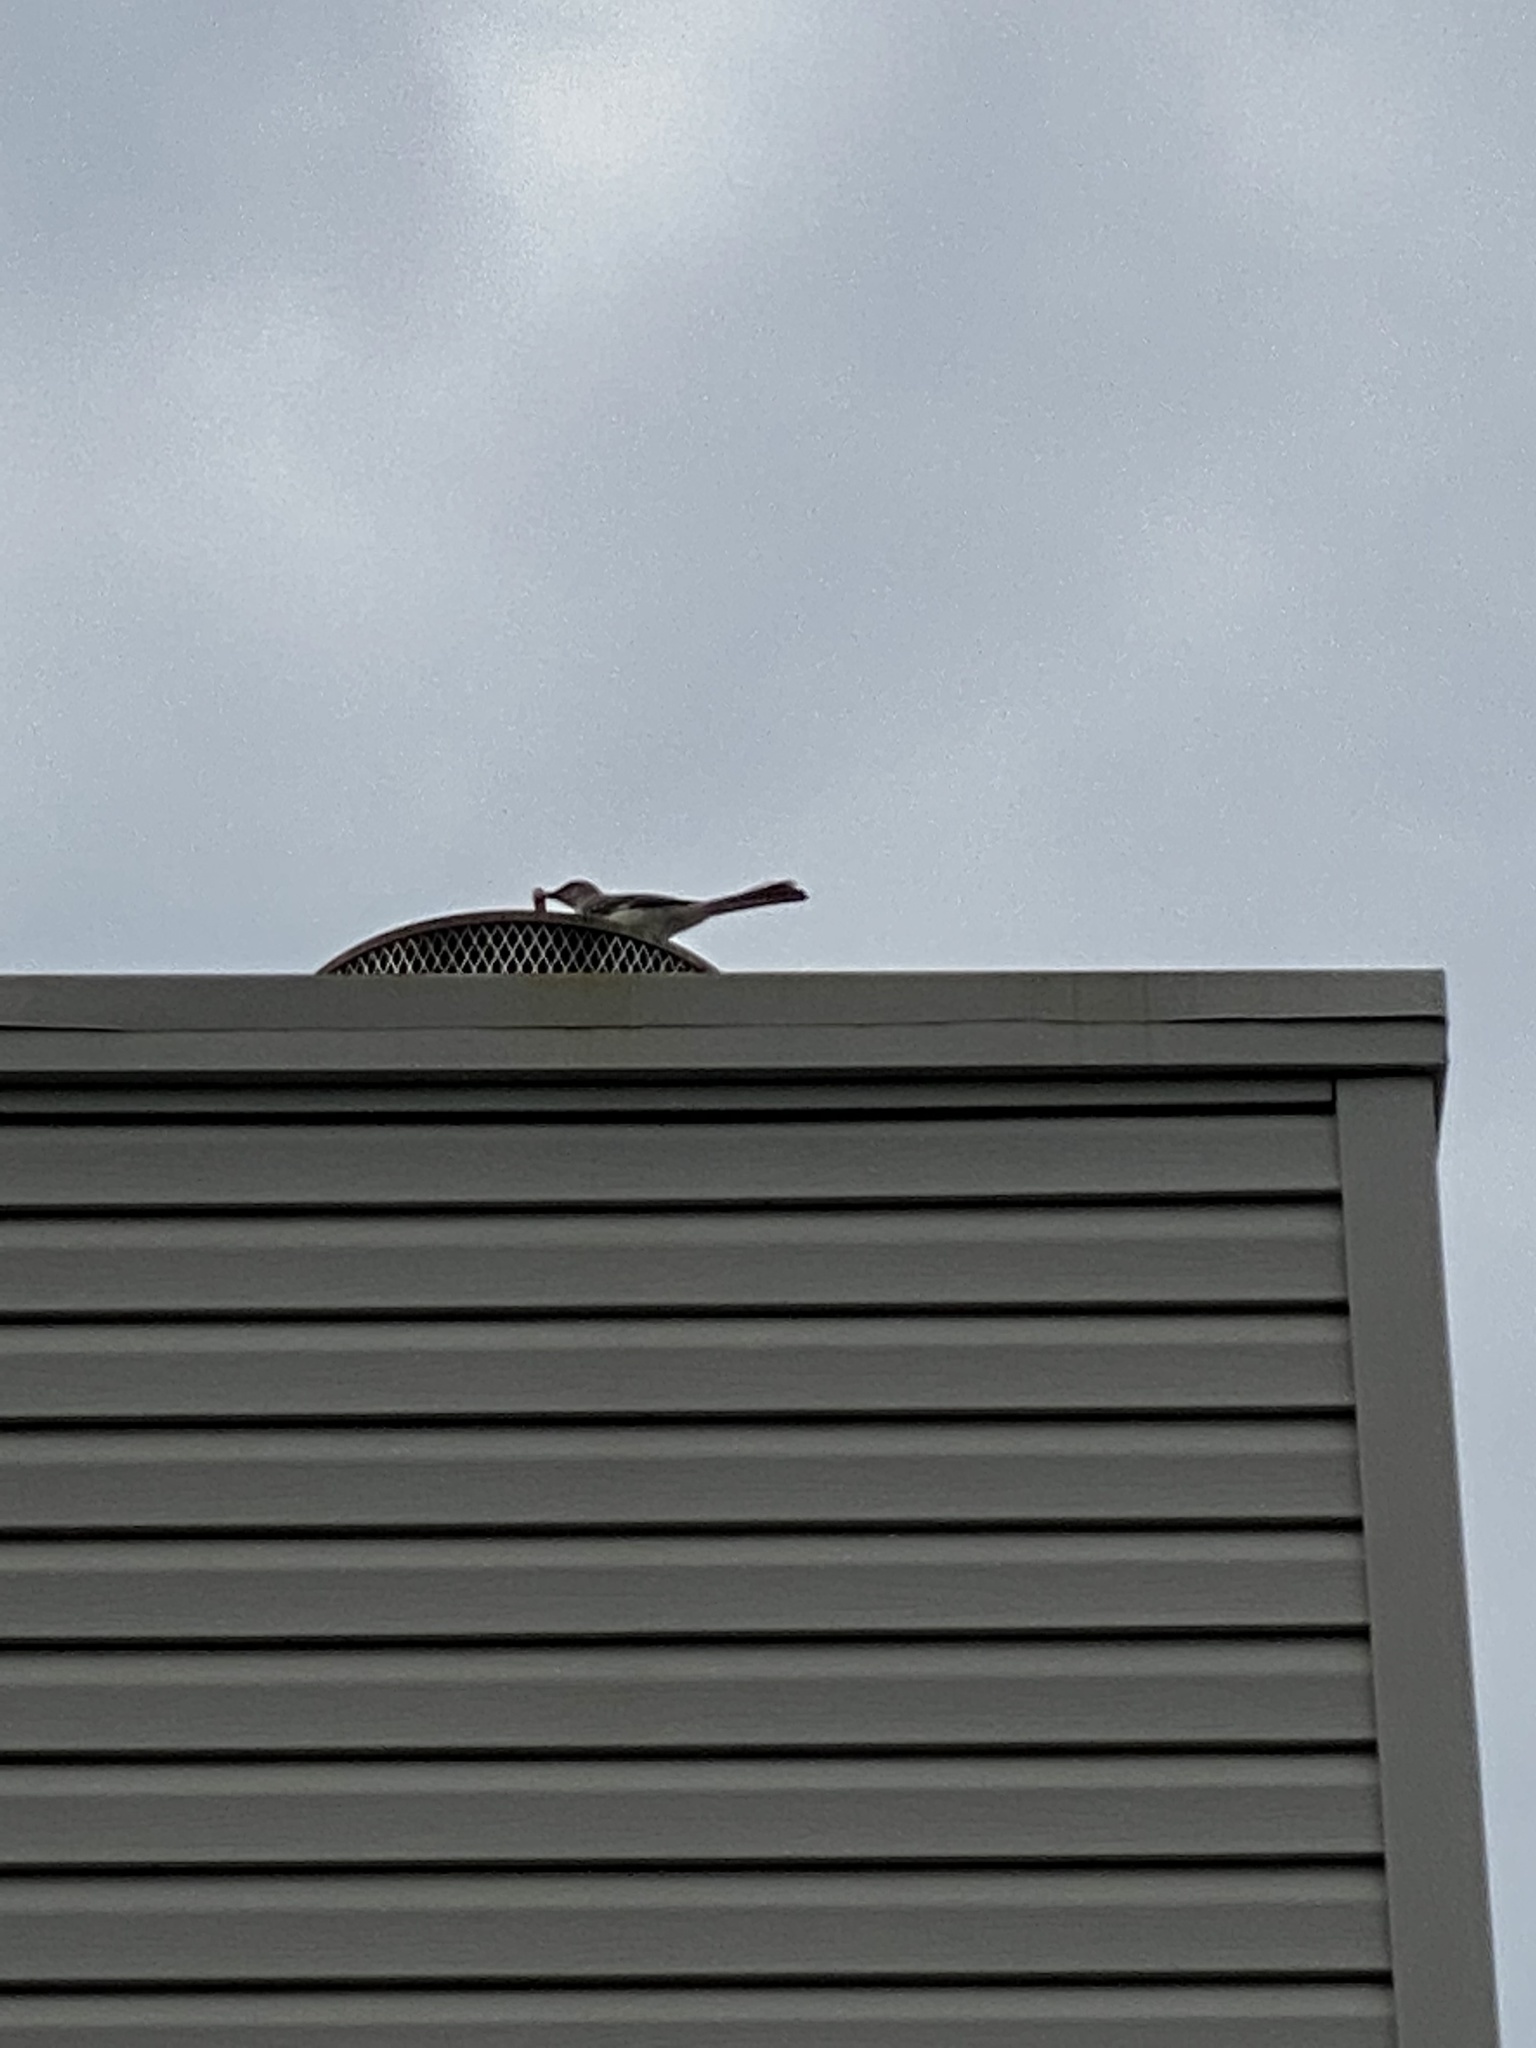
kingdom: Animalia
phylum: Chordata
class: Aves
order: Passeriformes
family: Mimidae
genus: Mimus
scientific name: Mimus polyglottos
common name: Northern mockingbird
